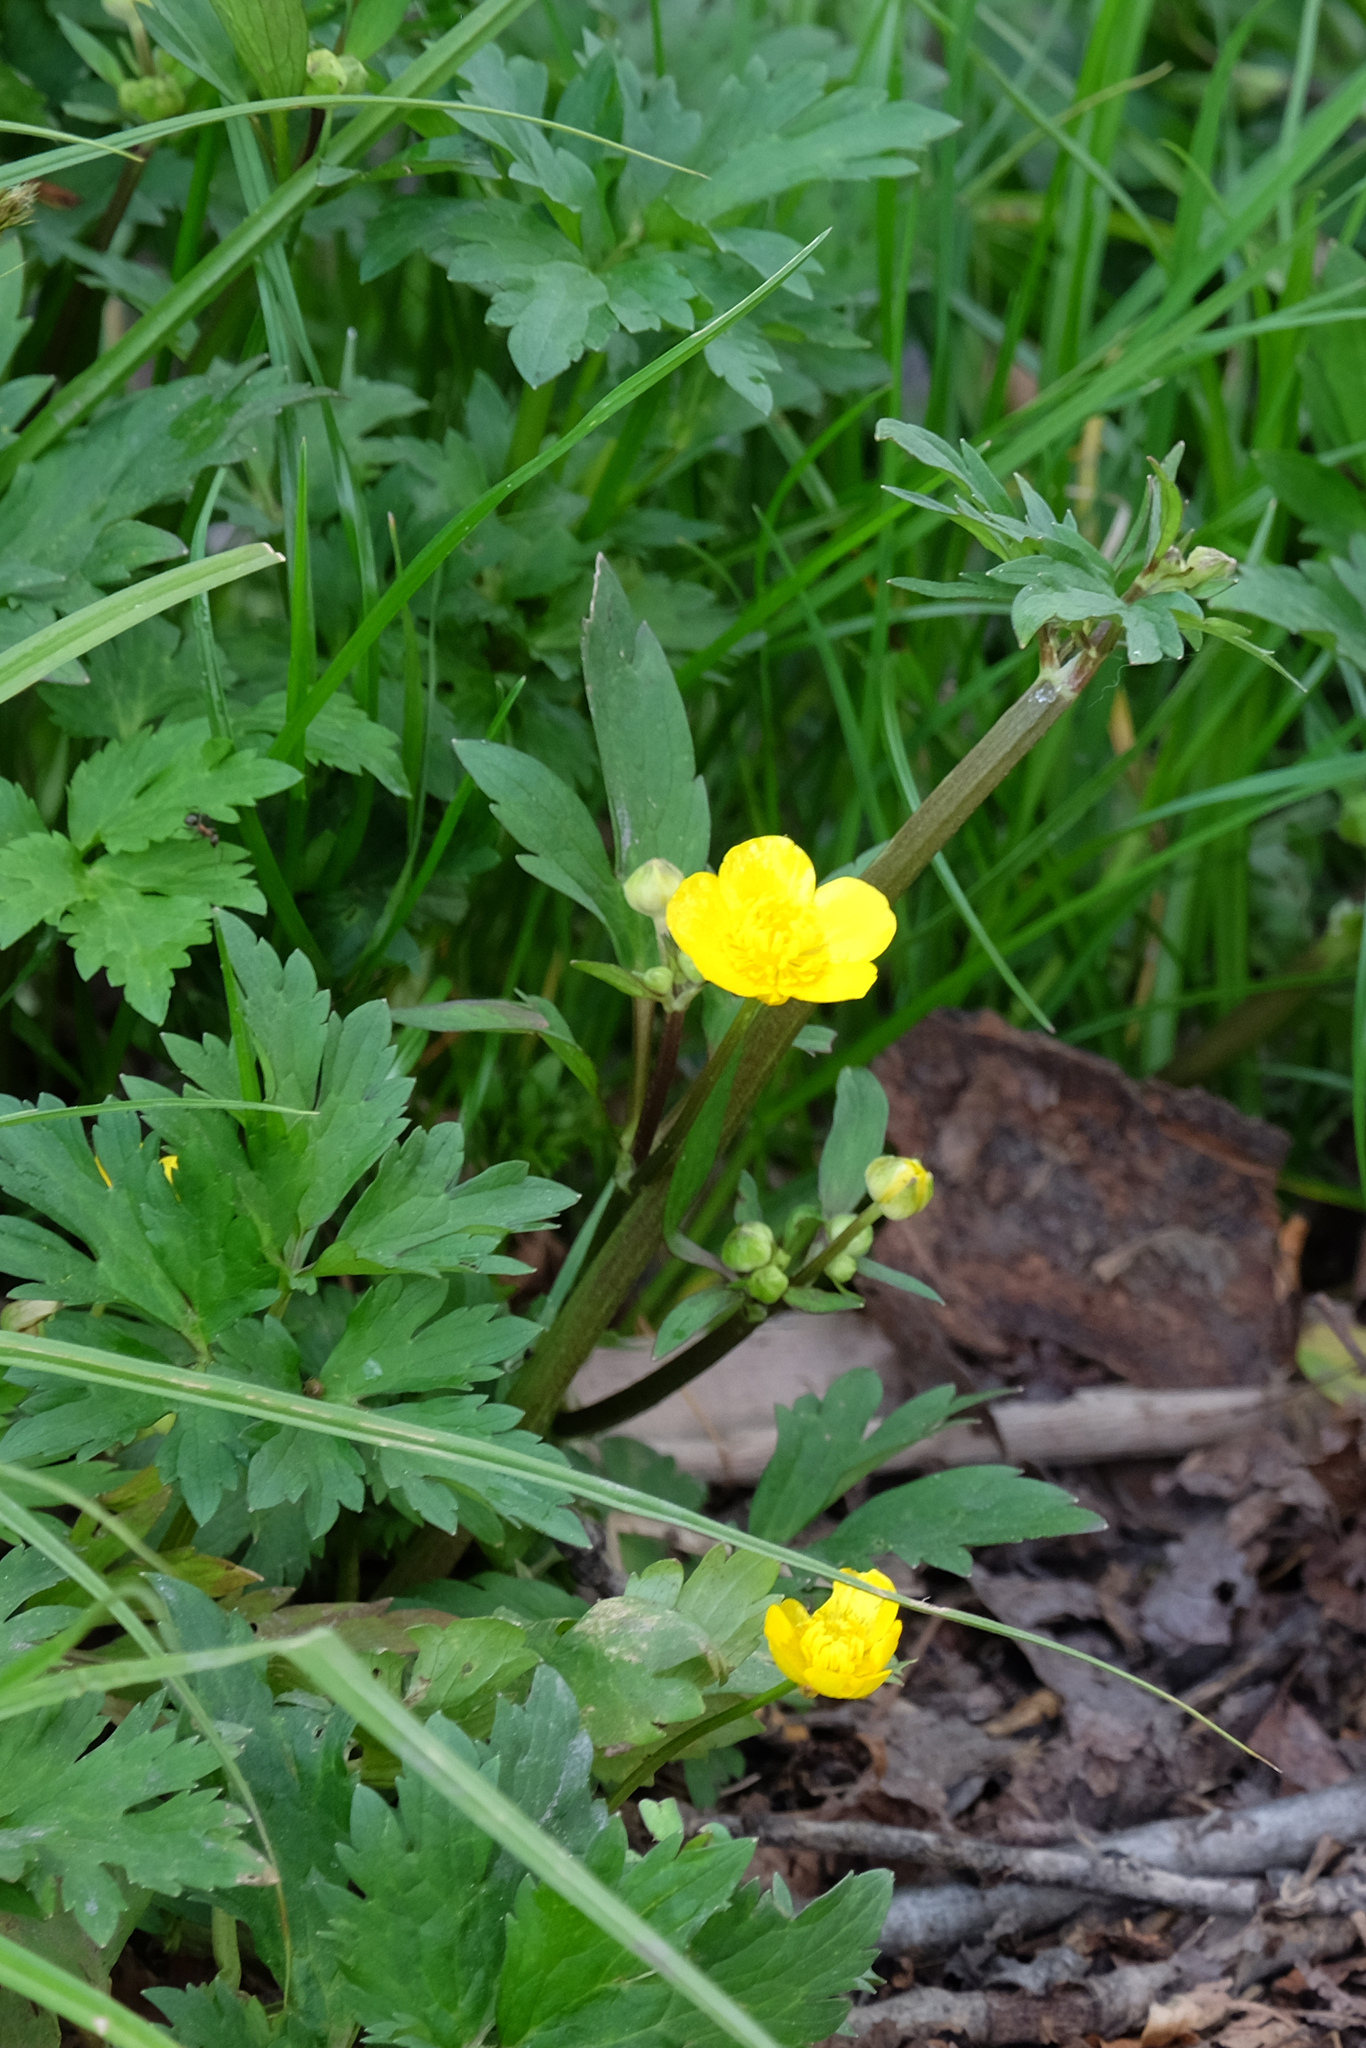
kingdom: Plantae
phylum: Tracheophyta
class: Magnoliopsida
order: Ranunculales
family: Ranunculaceae
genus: Ranunculus
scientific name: Ranunculus repens
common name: Creeping buttercup
